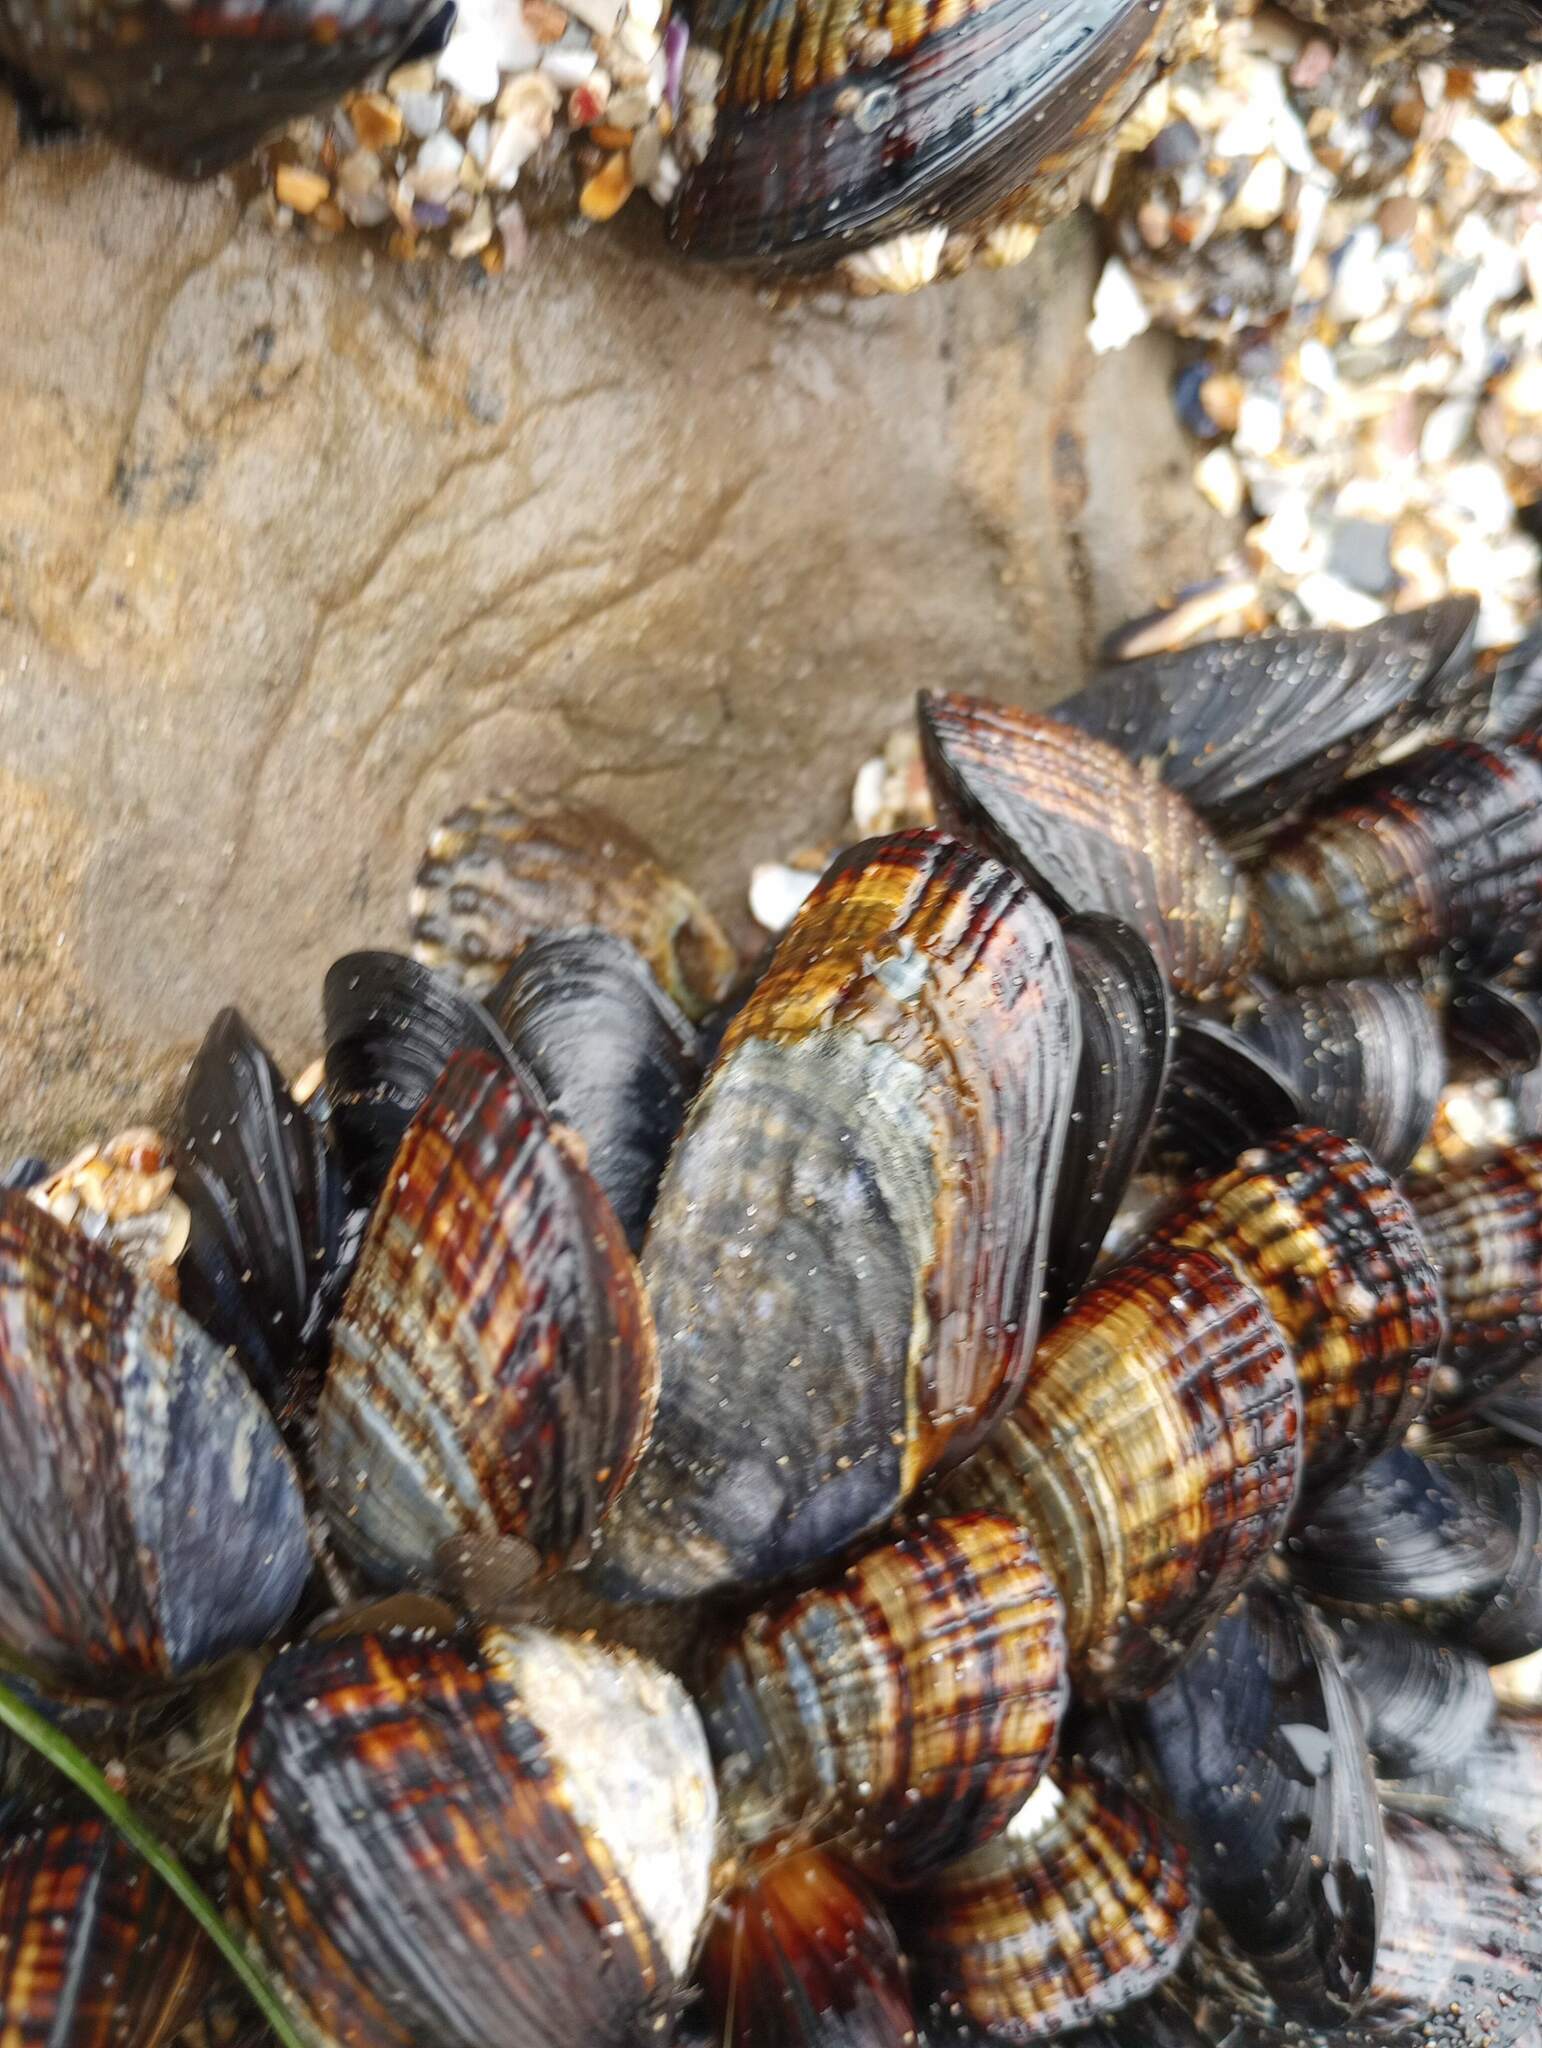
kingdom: Animalia
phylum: Mollusca
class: Bivalvia
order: Mytilida
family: Mytilidae
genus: Mytilus
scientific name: Mytilus californianus
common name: California mussel
